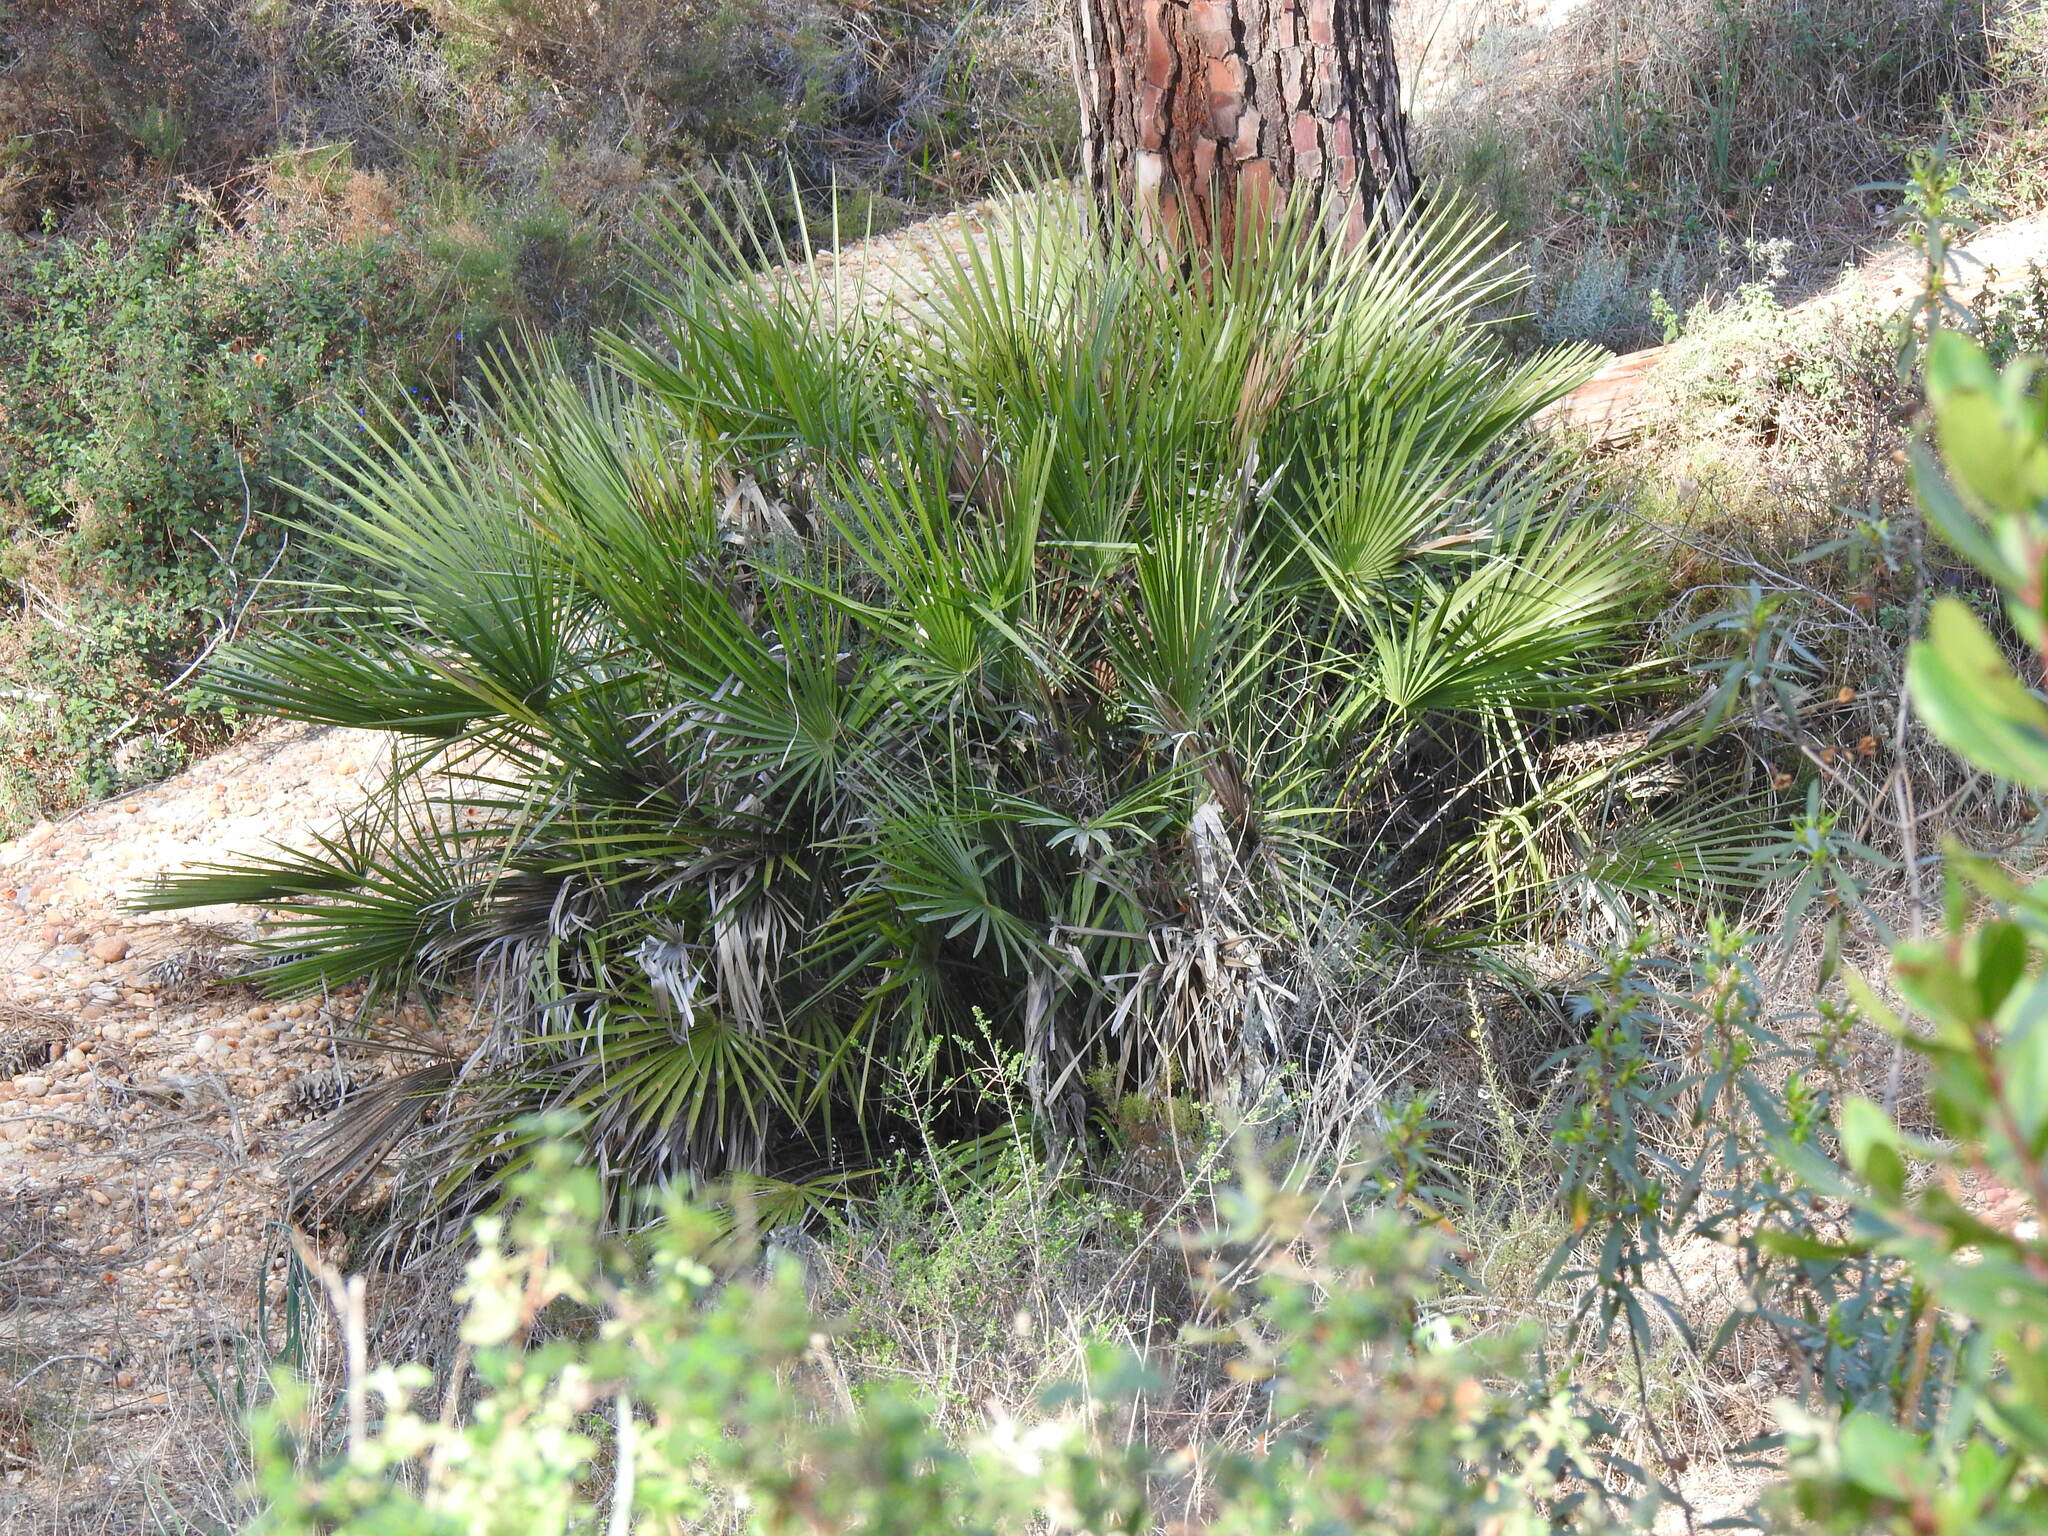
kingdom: Plantae
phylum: Tracheophyta
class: Liliopsida
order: Arecales
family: Arecaceae
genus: Chamaerops
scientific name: Chamaerops humilis
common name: Dwarf fan palm
